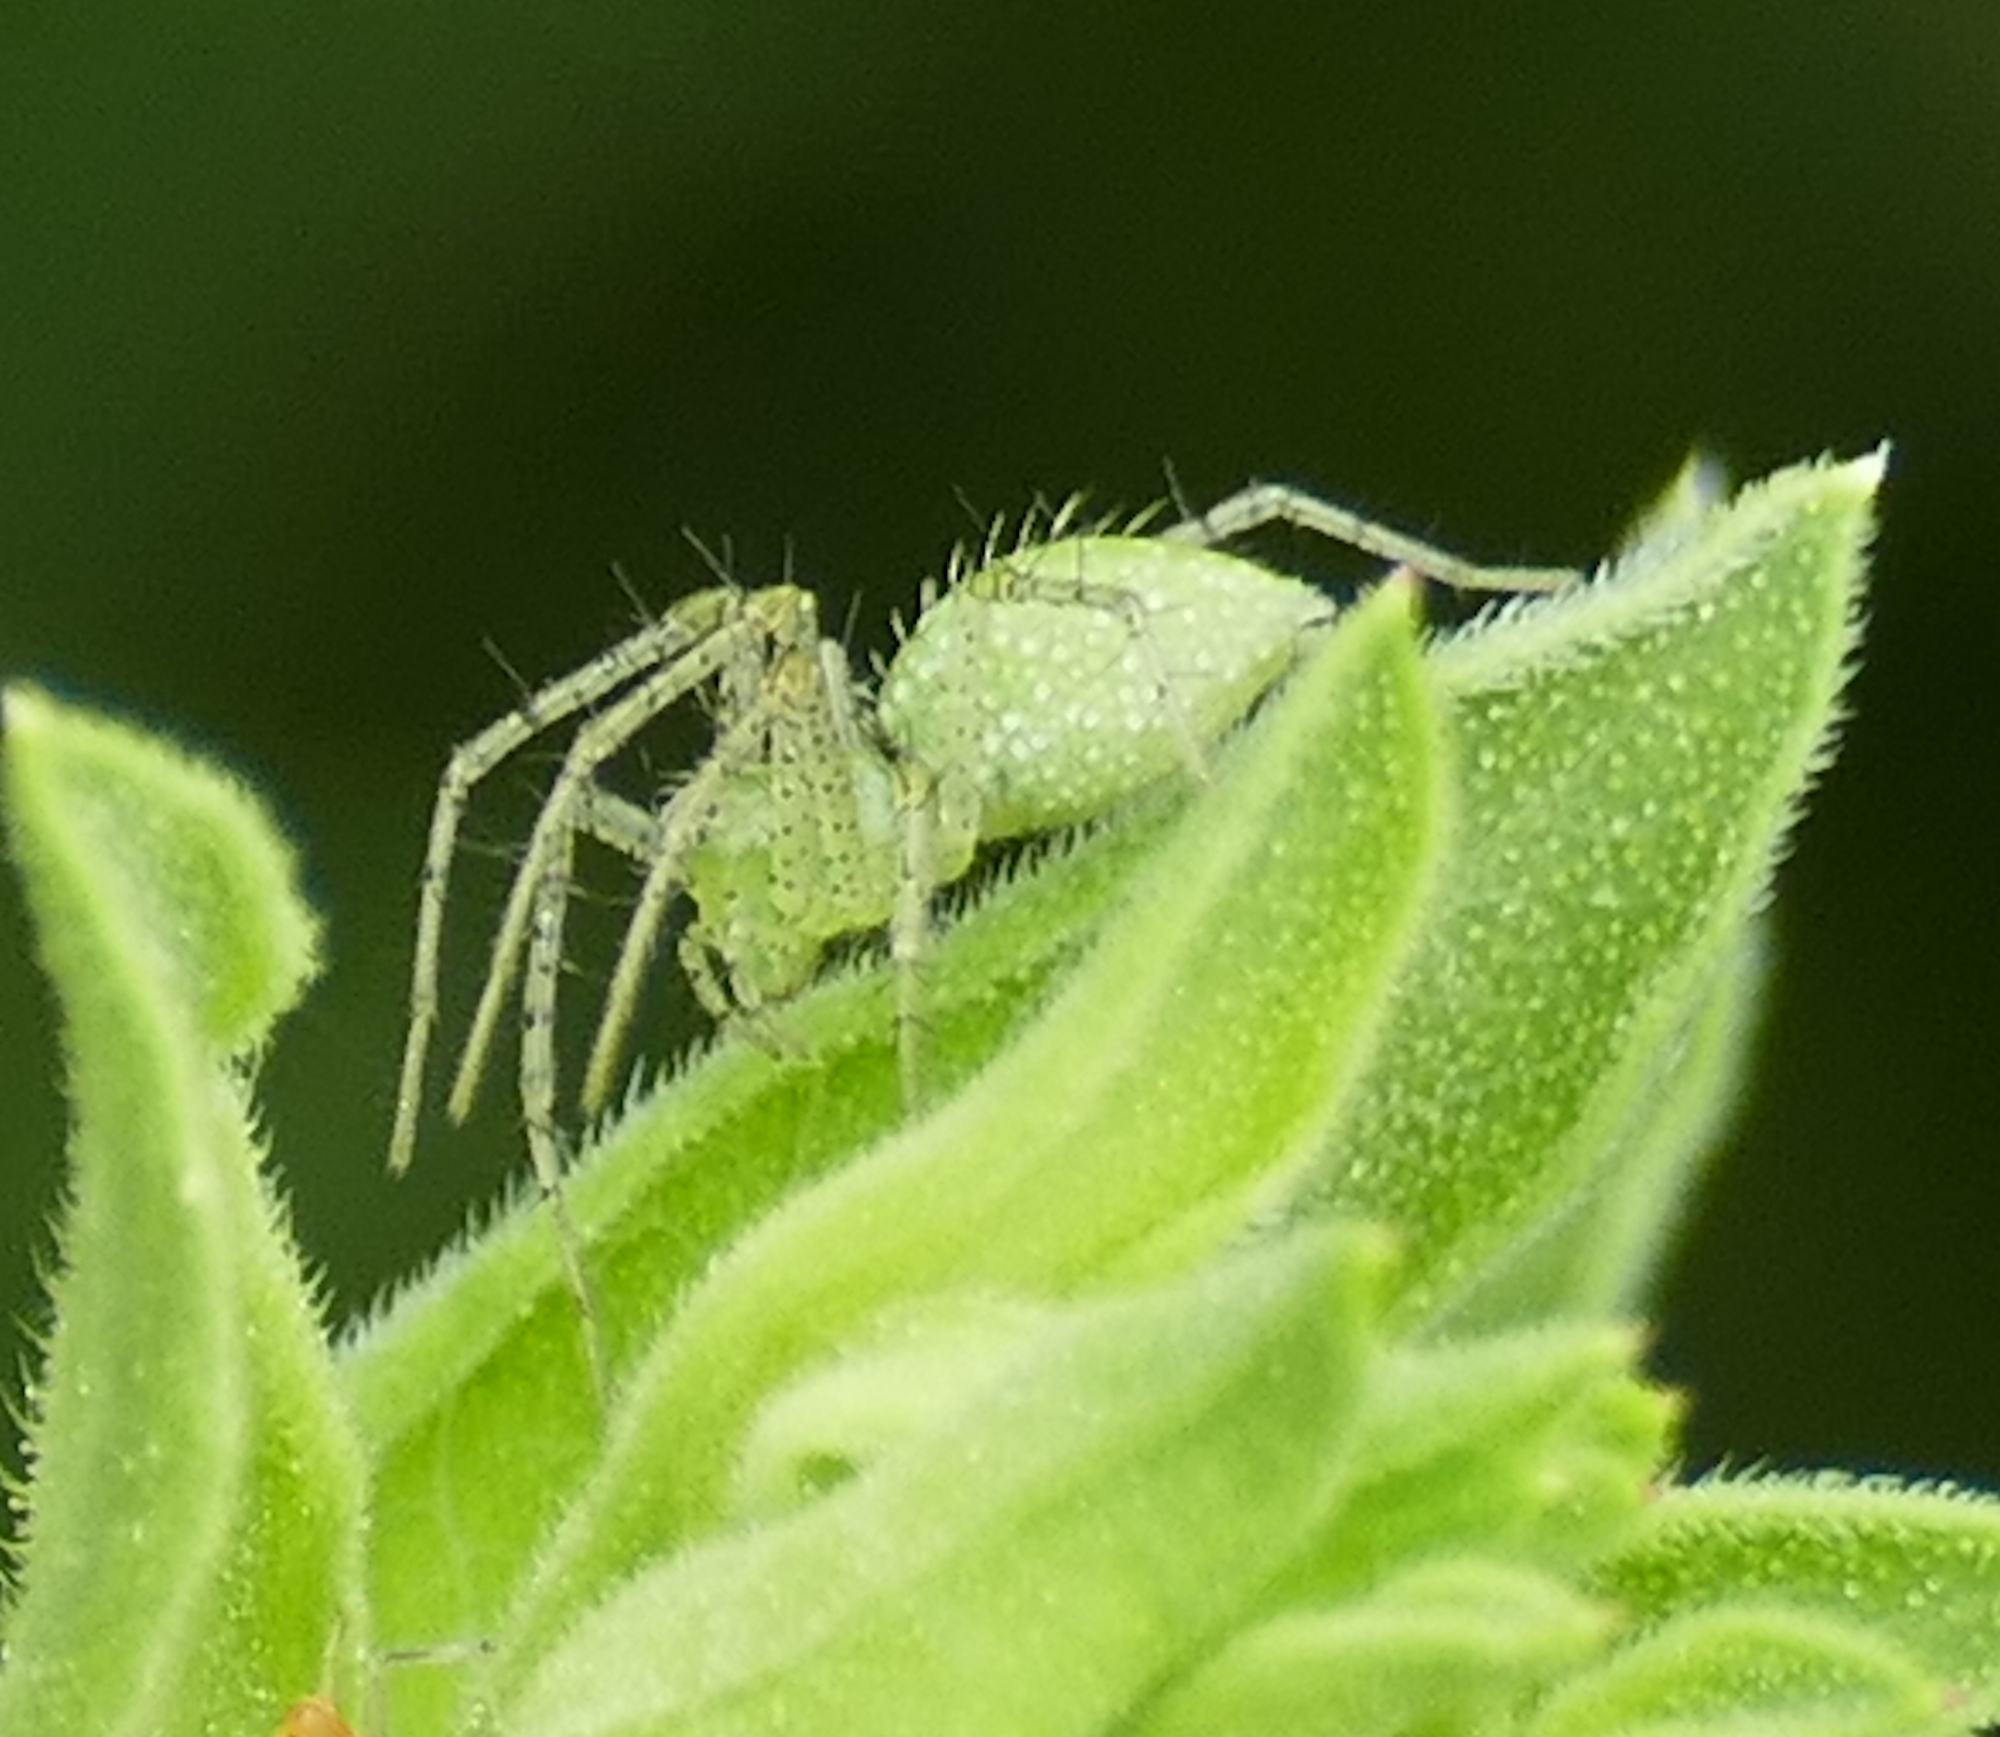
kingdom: Animalia
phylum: Arthropoda
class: Arachnida
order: Araneae
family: Oxyopidae
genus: Peucetia
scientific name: Peucetia
